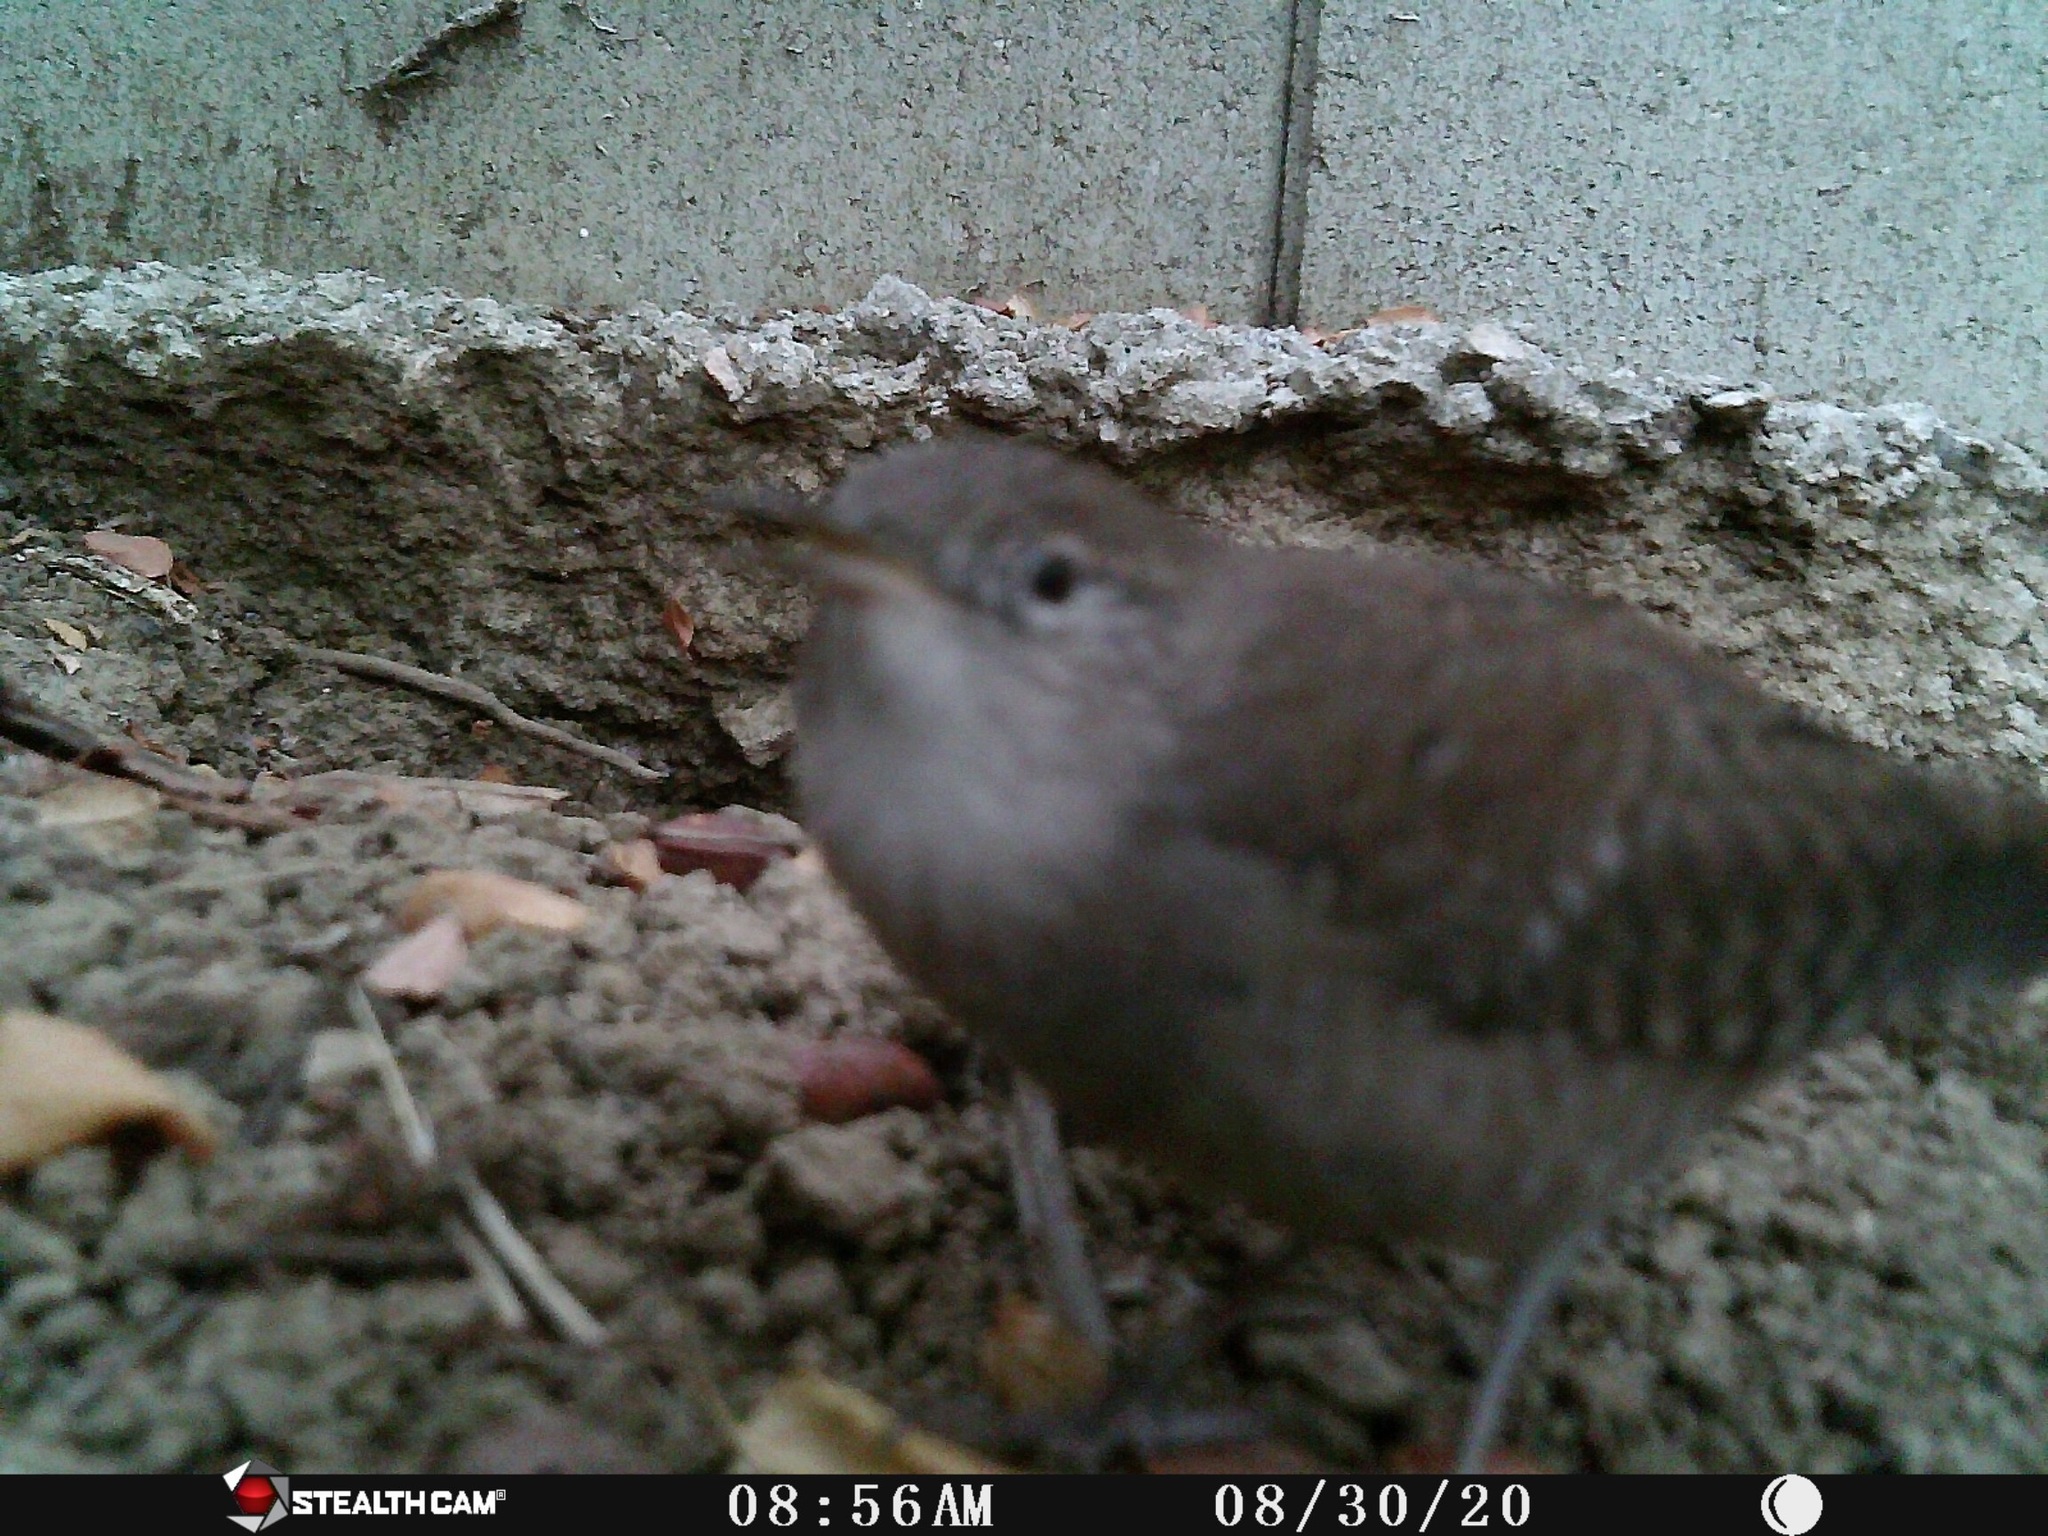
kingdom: Animalia
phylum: Chordata
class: Aves
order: Passeriformes
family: Troglodytidae
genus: Troglodytes
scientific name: Troglodytes aedon
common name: House wren
